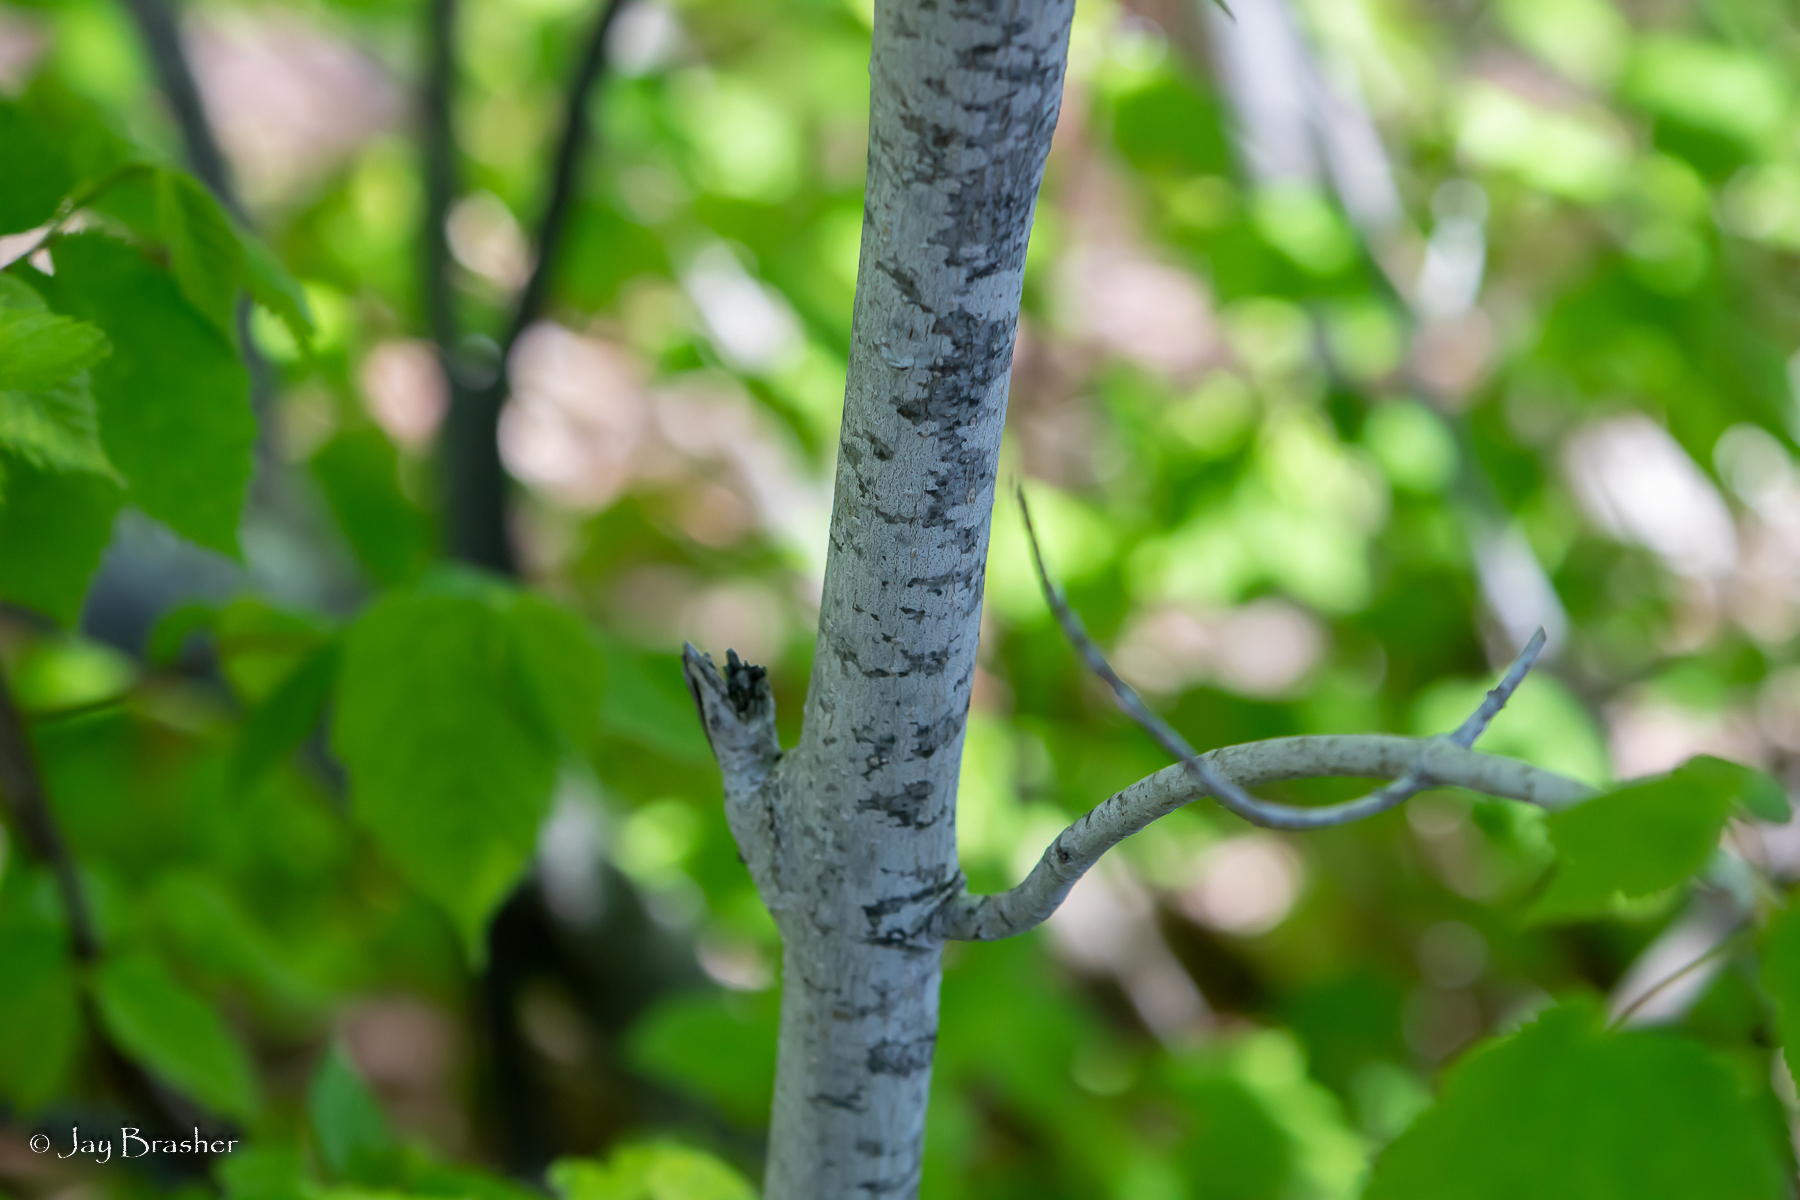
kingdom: Plantae
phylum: Tracheophyta
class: Magnoliopsida
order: Sapindales
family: Sapindaceae
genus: Acer
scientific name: Acer spicatum
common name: Mountain maple
